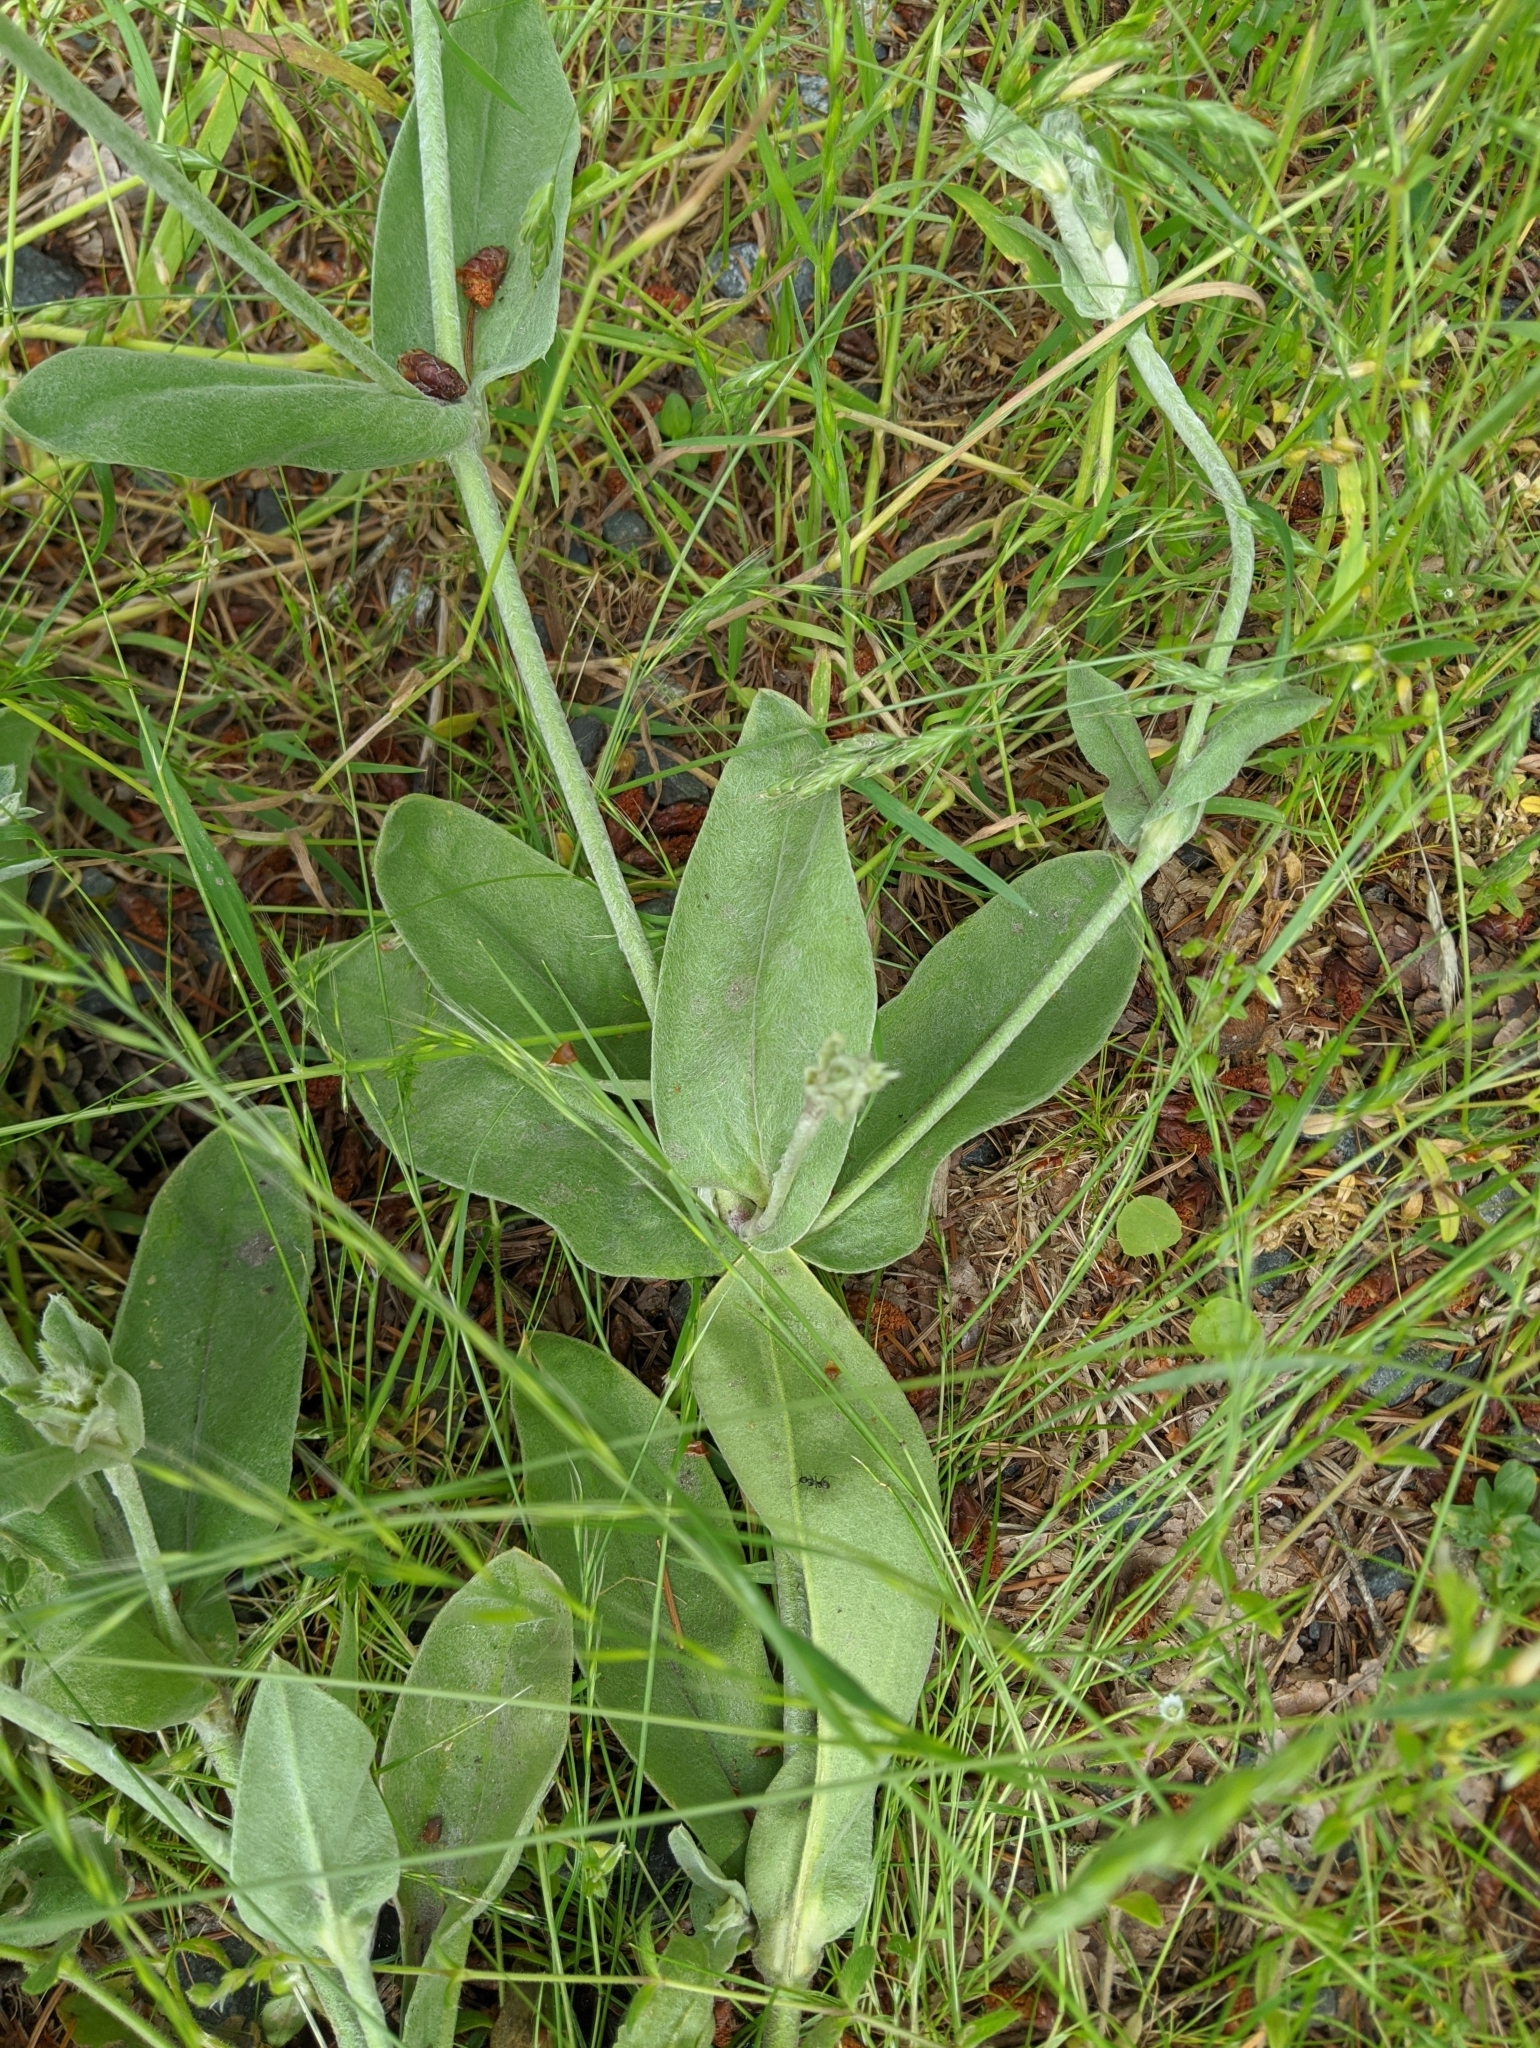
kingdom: Plantae
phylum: Tracheophyta
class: Magnoliopsida
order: Caryophyllales
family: Caryophyllaceae
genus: Silene
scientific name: Silene coronaria
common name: Rose campion
